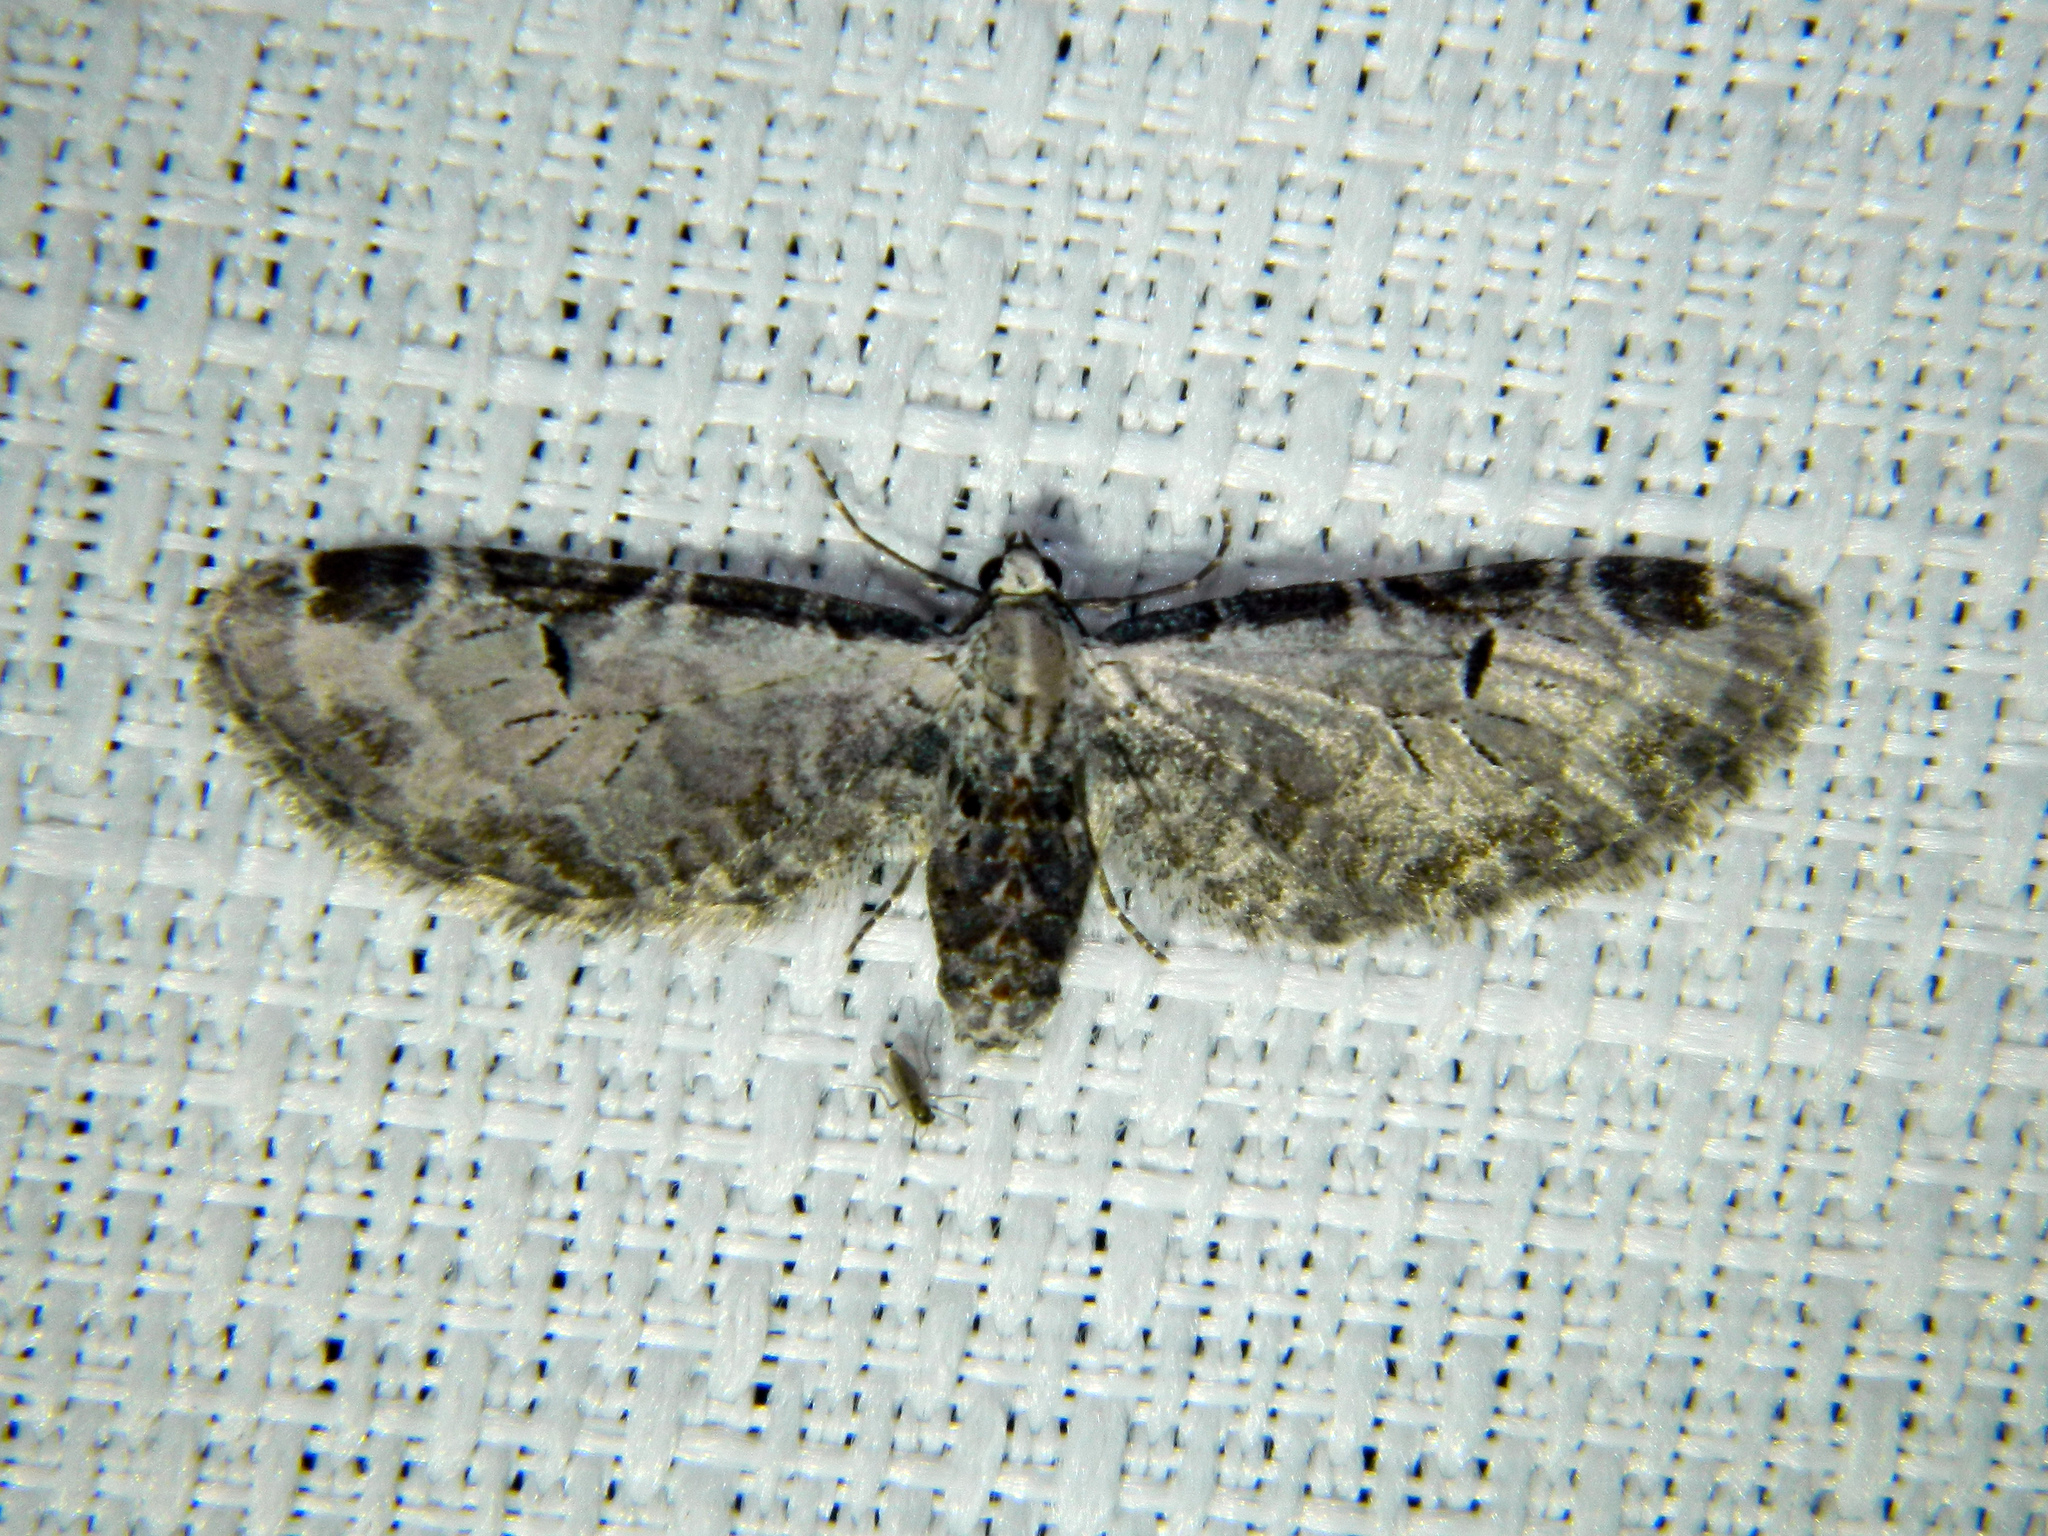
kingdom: Animalia
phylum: Arthropoda
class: Insecta
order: Lepidoptera
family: Geometridae
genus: Eupithecia
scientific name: Eupithecia ravocostaliata
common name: Great varigated pug
